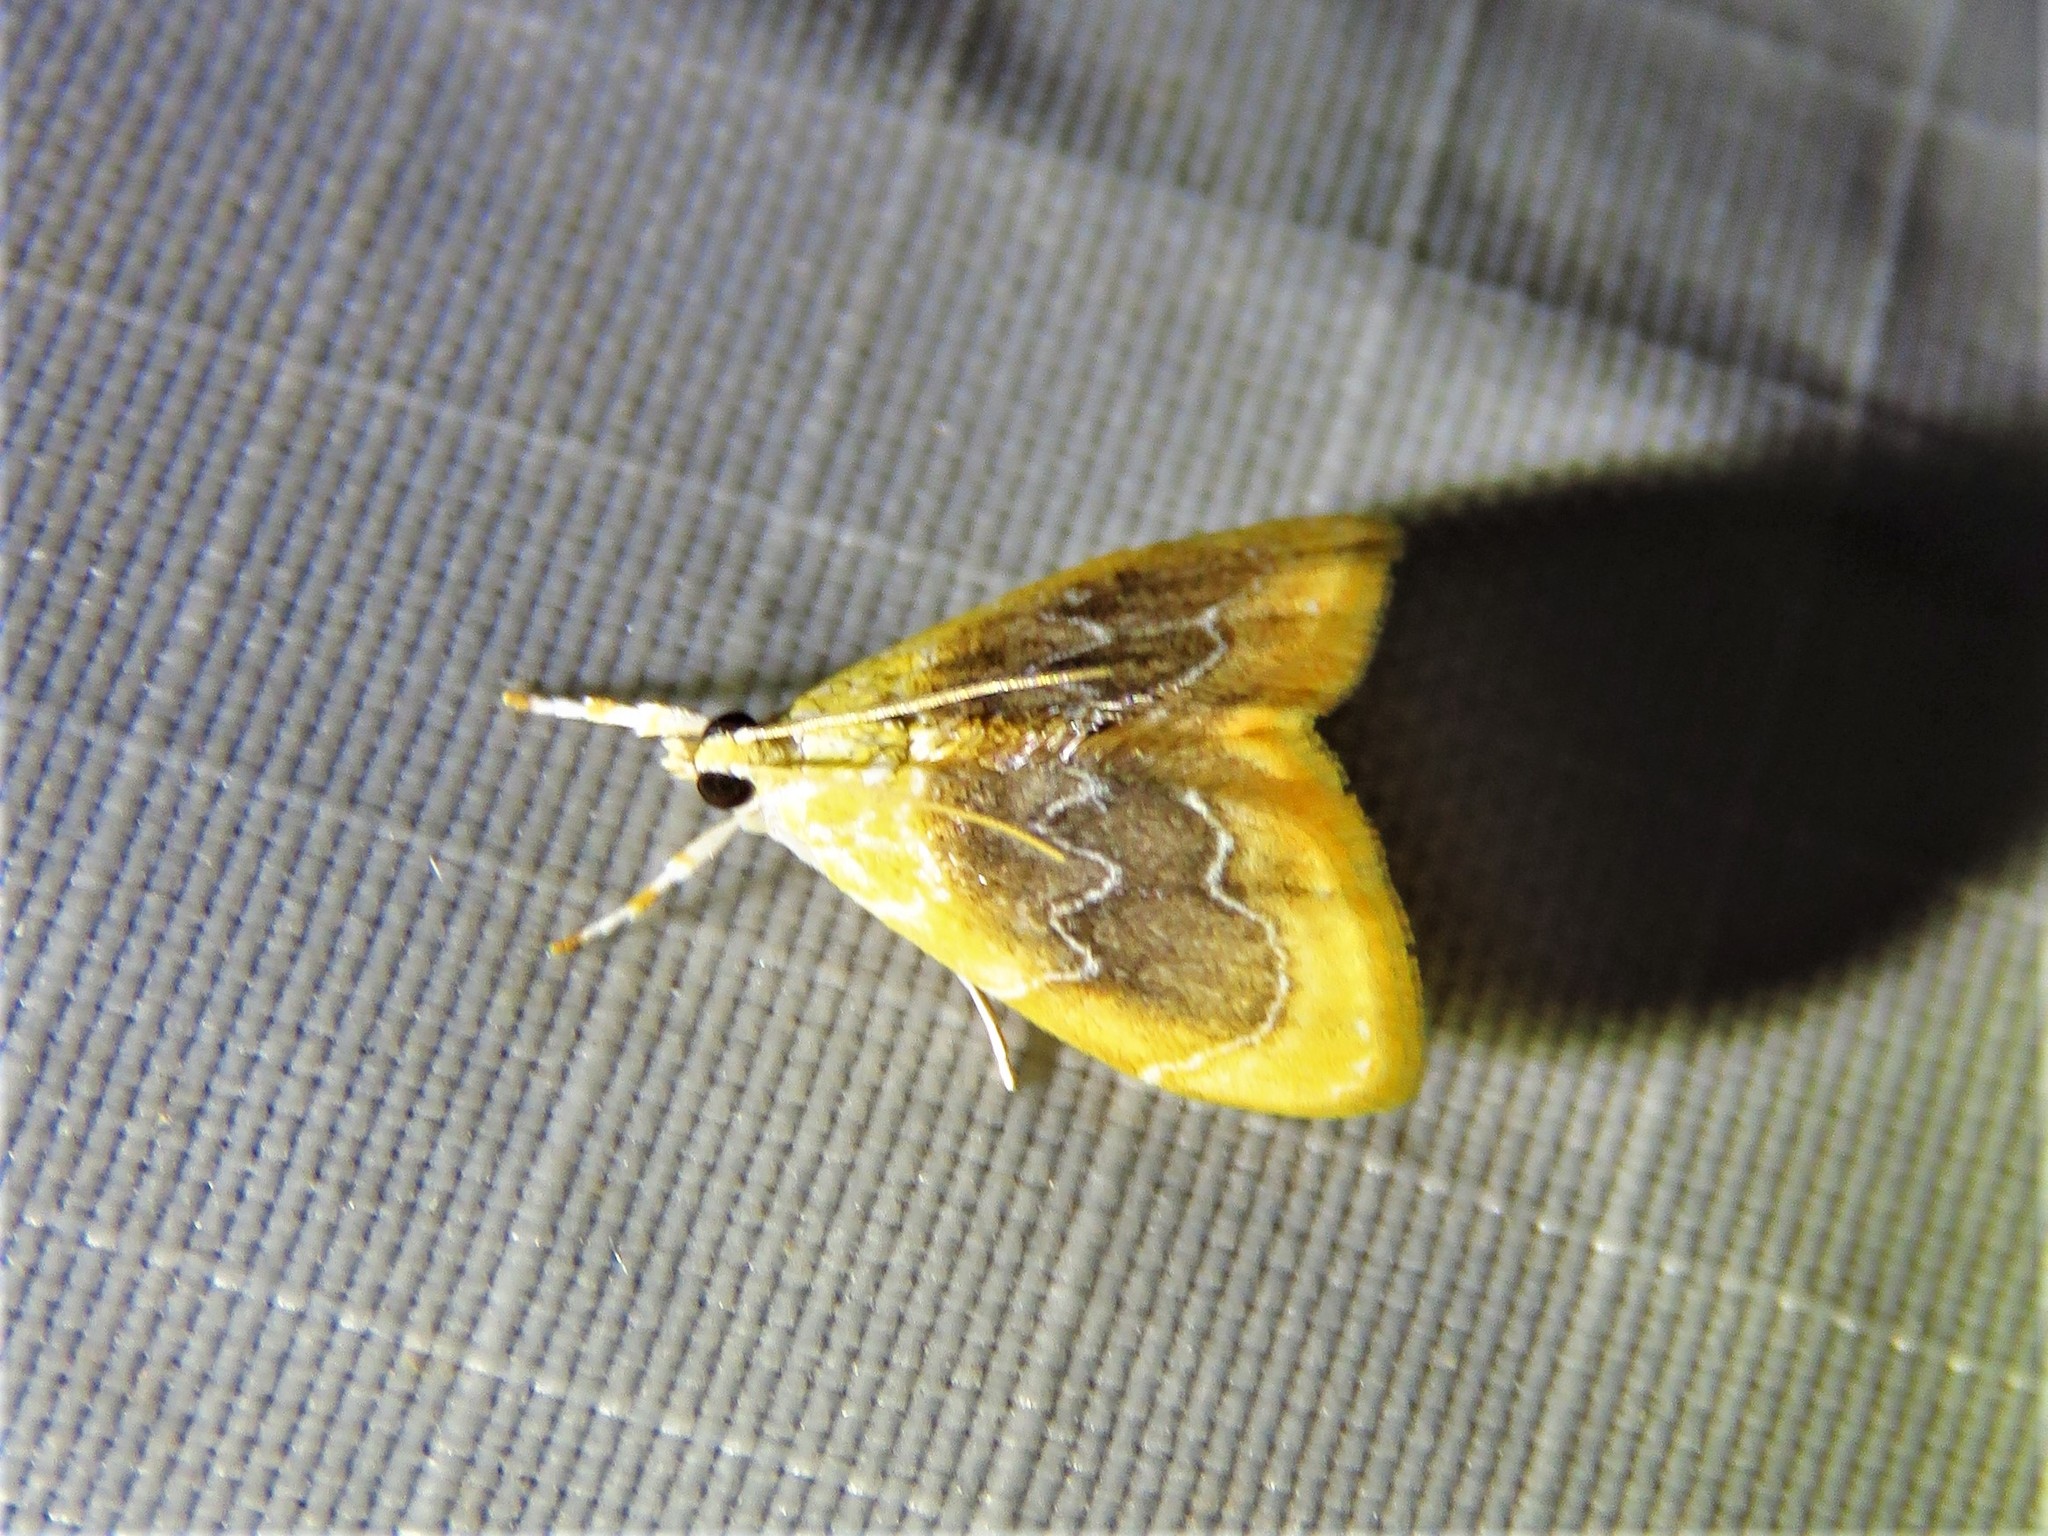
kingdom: Animalia
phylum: Arthropoda
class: Insecta
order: Lepidoptera
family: Crambidae
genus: Glaphyria
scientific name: Glaphyria fulminalis
